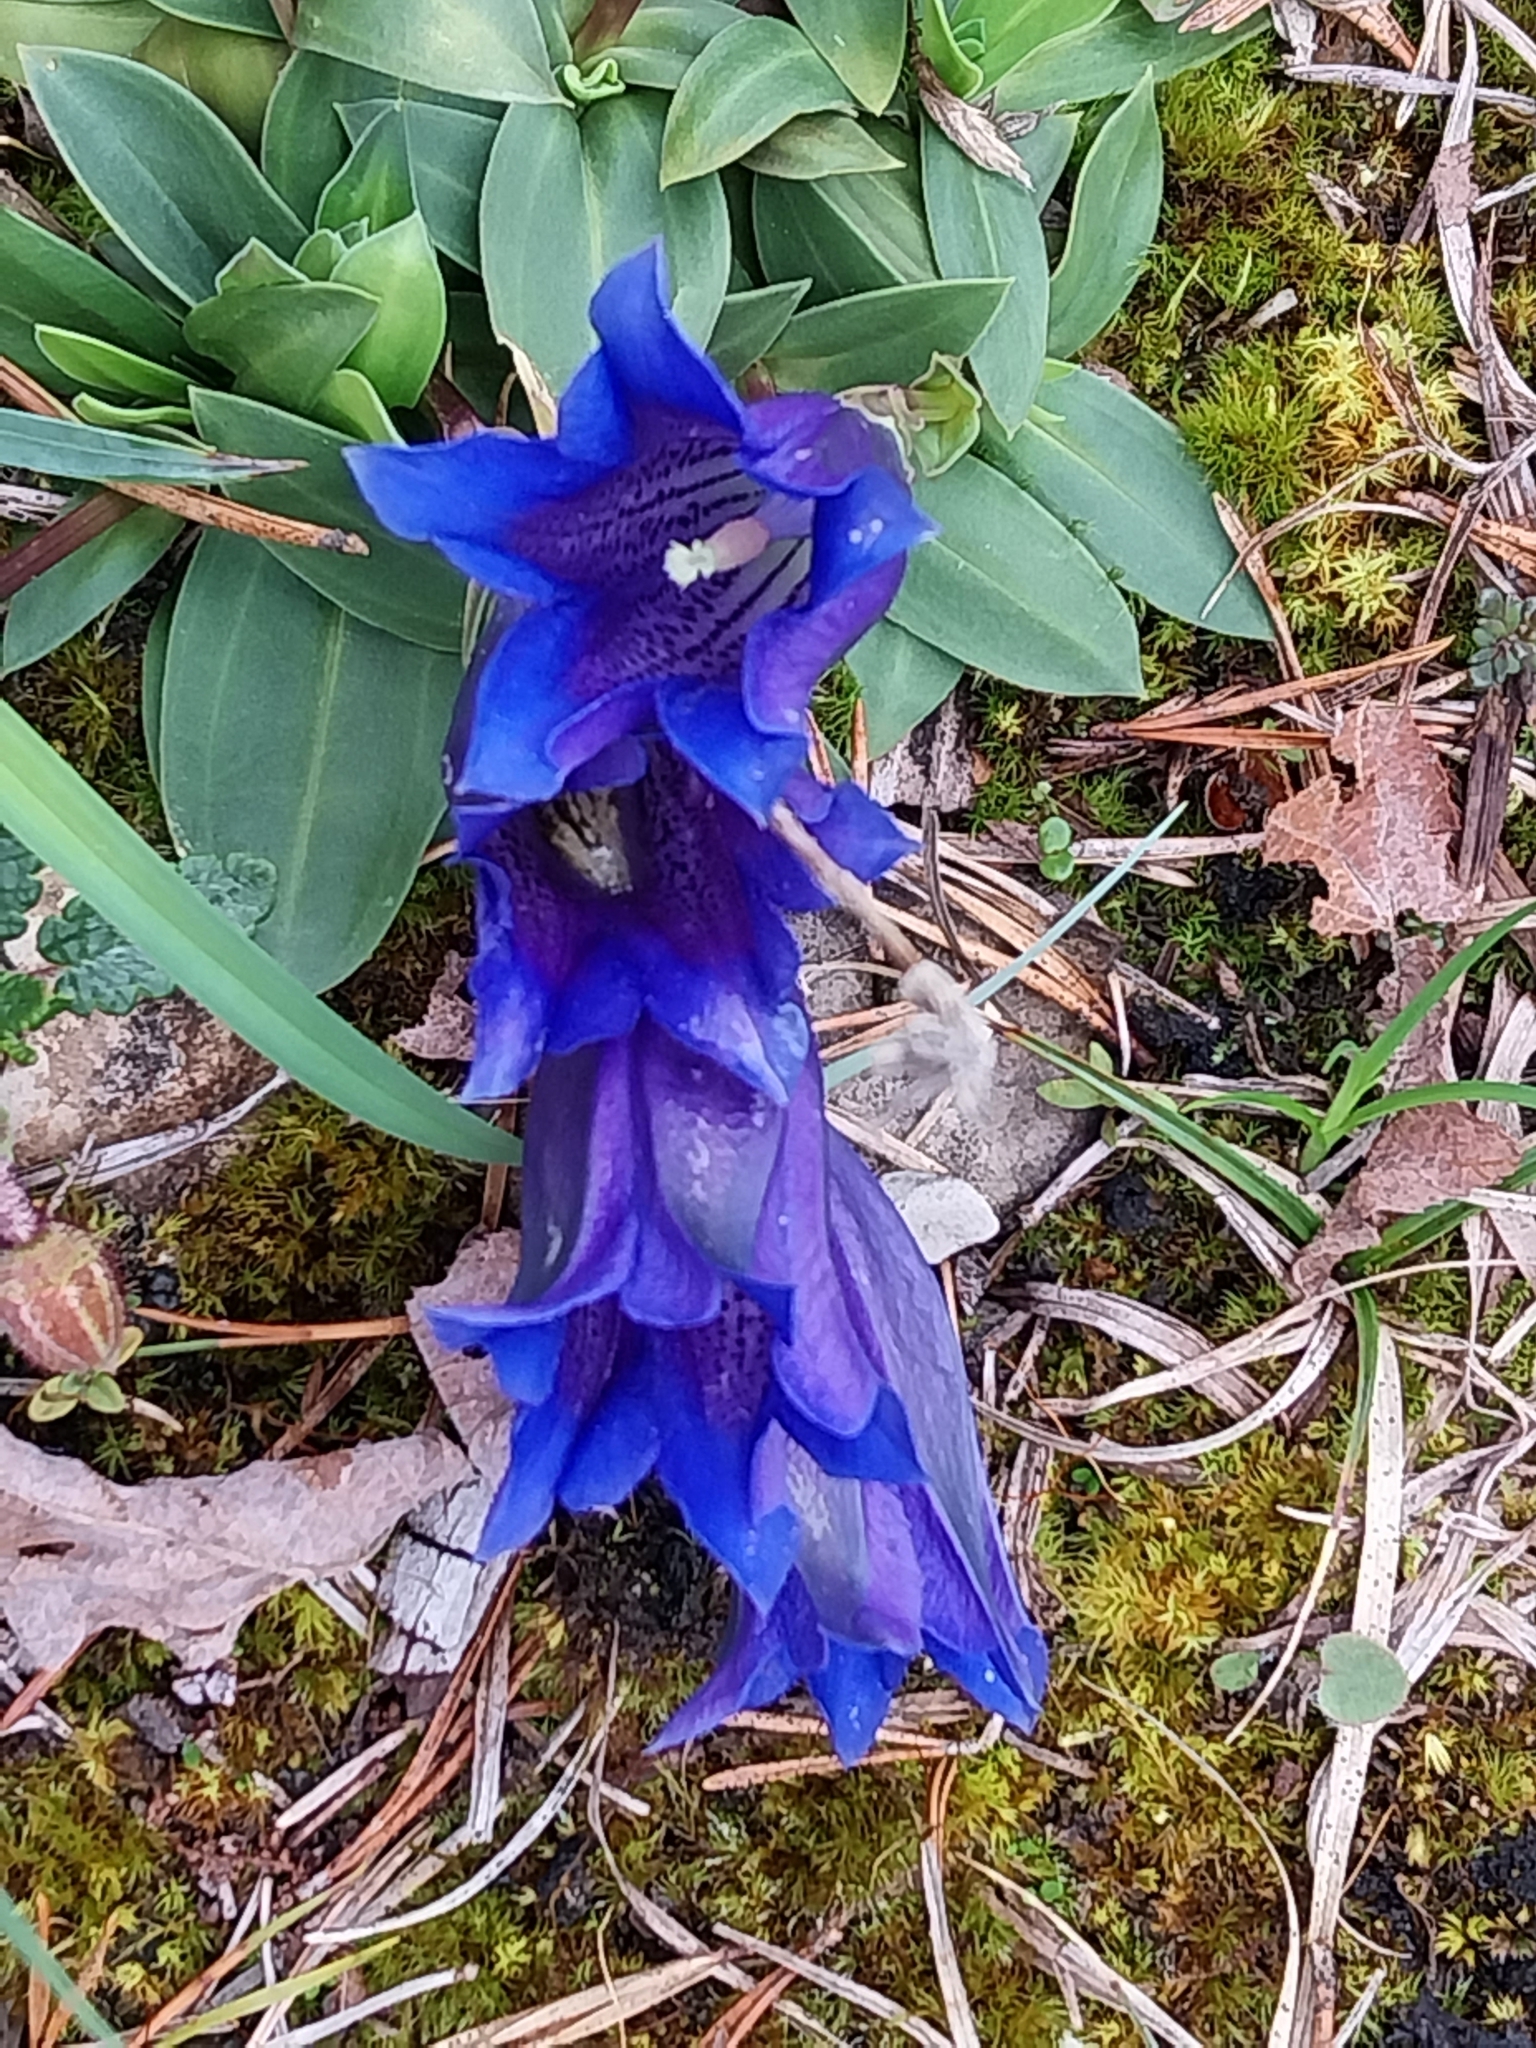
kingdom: Plantae
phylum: Tracheophyta
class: Magnoliopsida
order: Gentianales
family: Gentianaceae
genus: Gentiana
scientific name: Gentiana clusii
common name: Trumpet gentian
